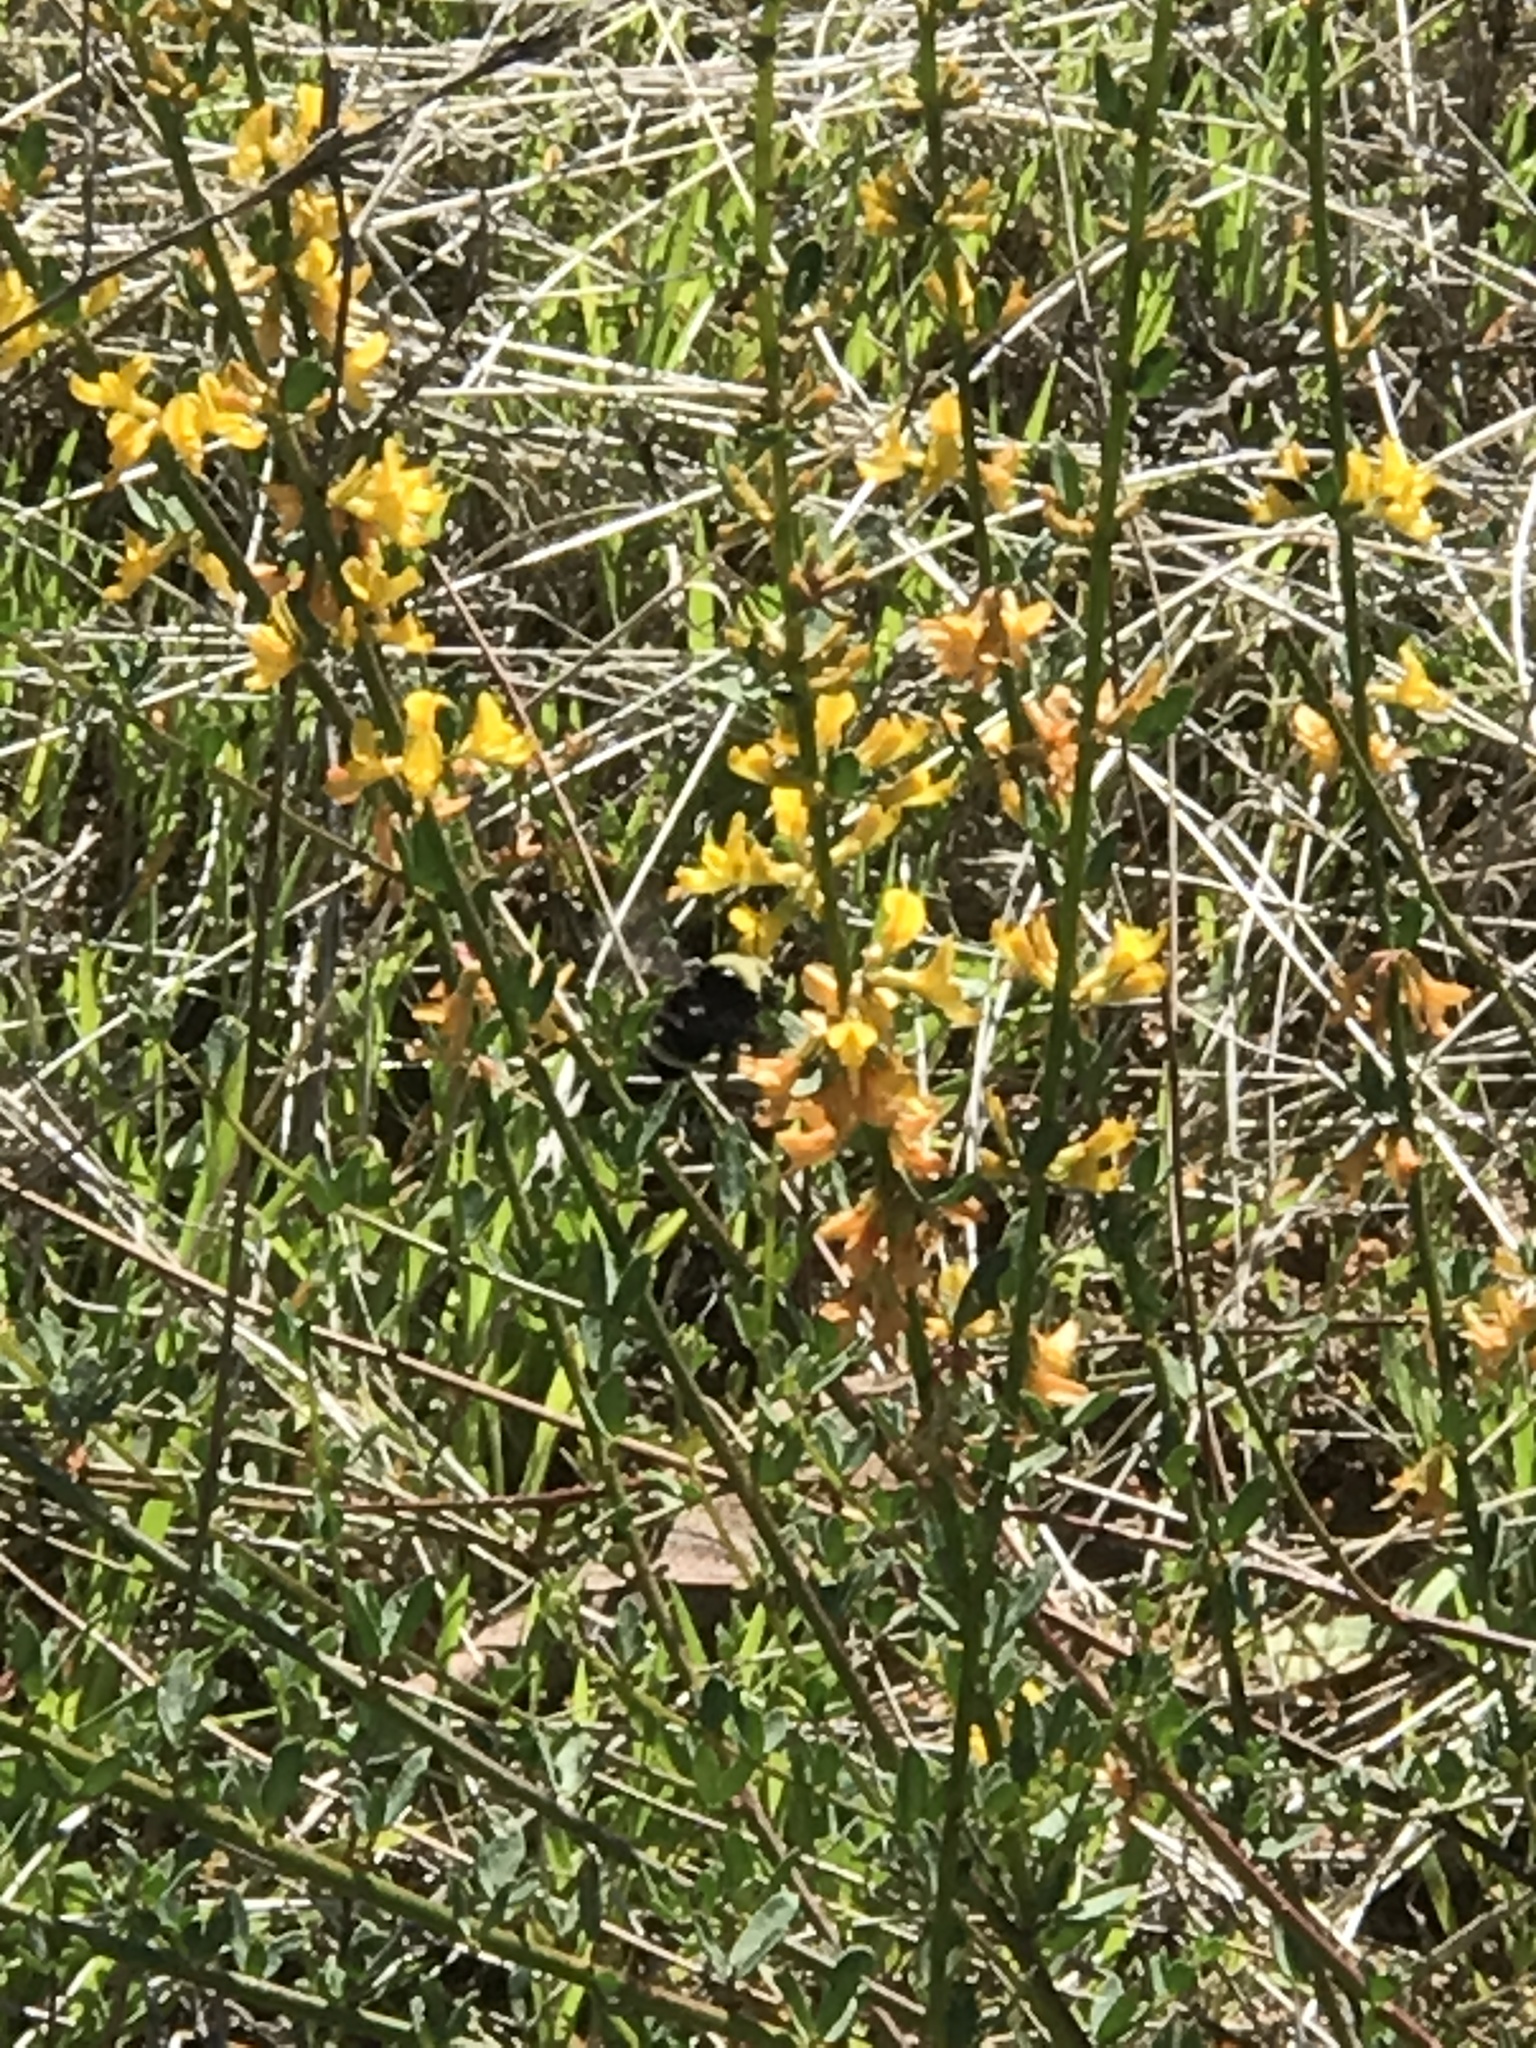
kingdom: Animalia
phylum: Arthropoda
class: Insecta
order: Hymenoptera
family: Apidae
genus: Bombus
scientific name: Bombus vosnesenskii
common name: Vosnesensky bumble bee
